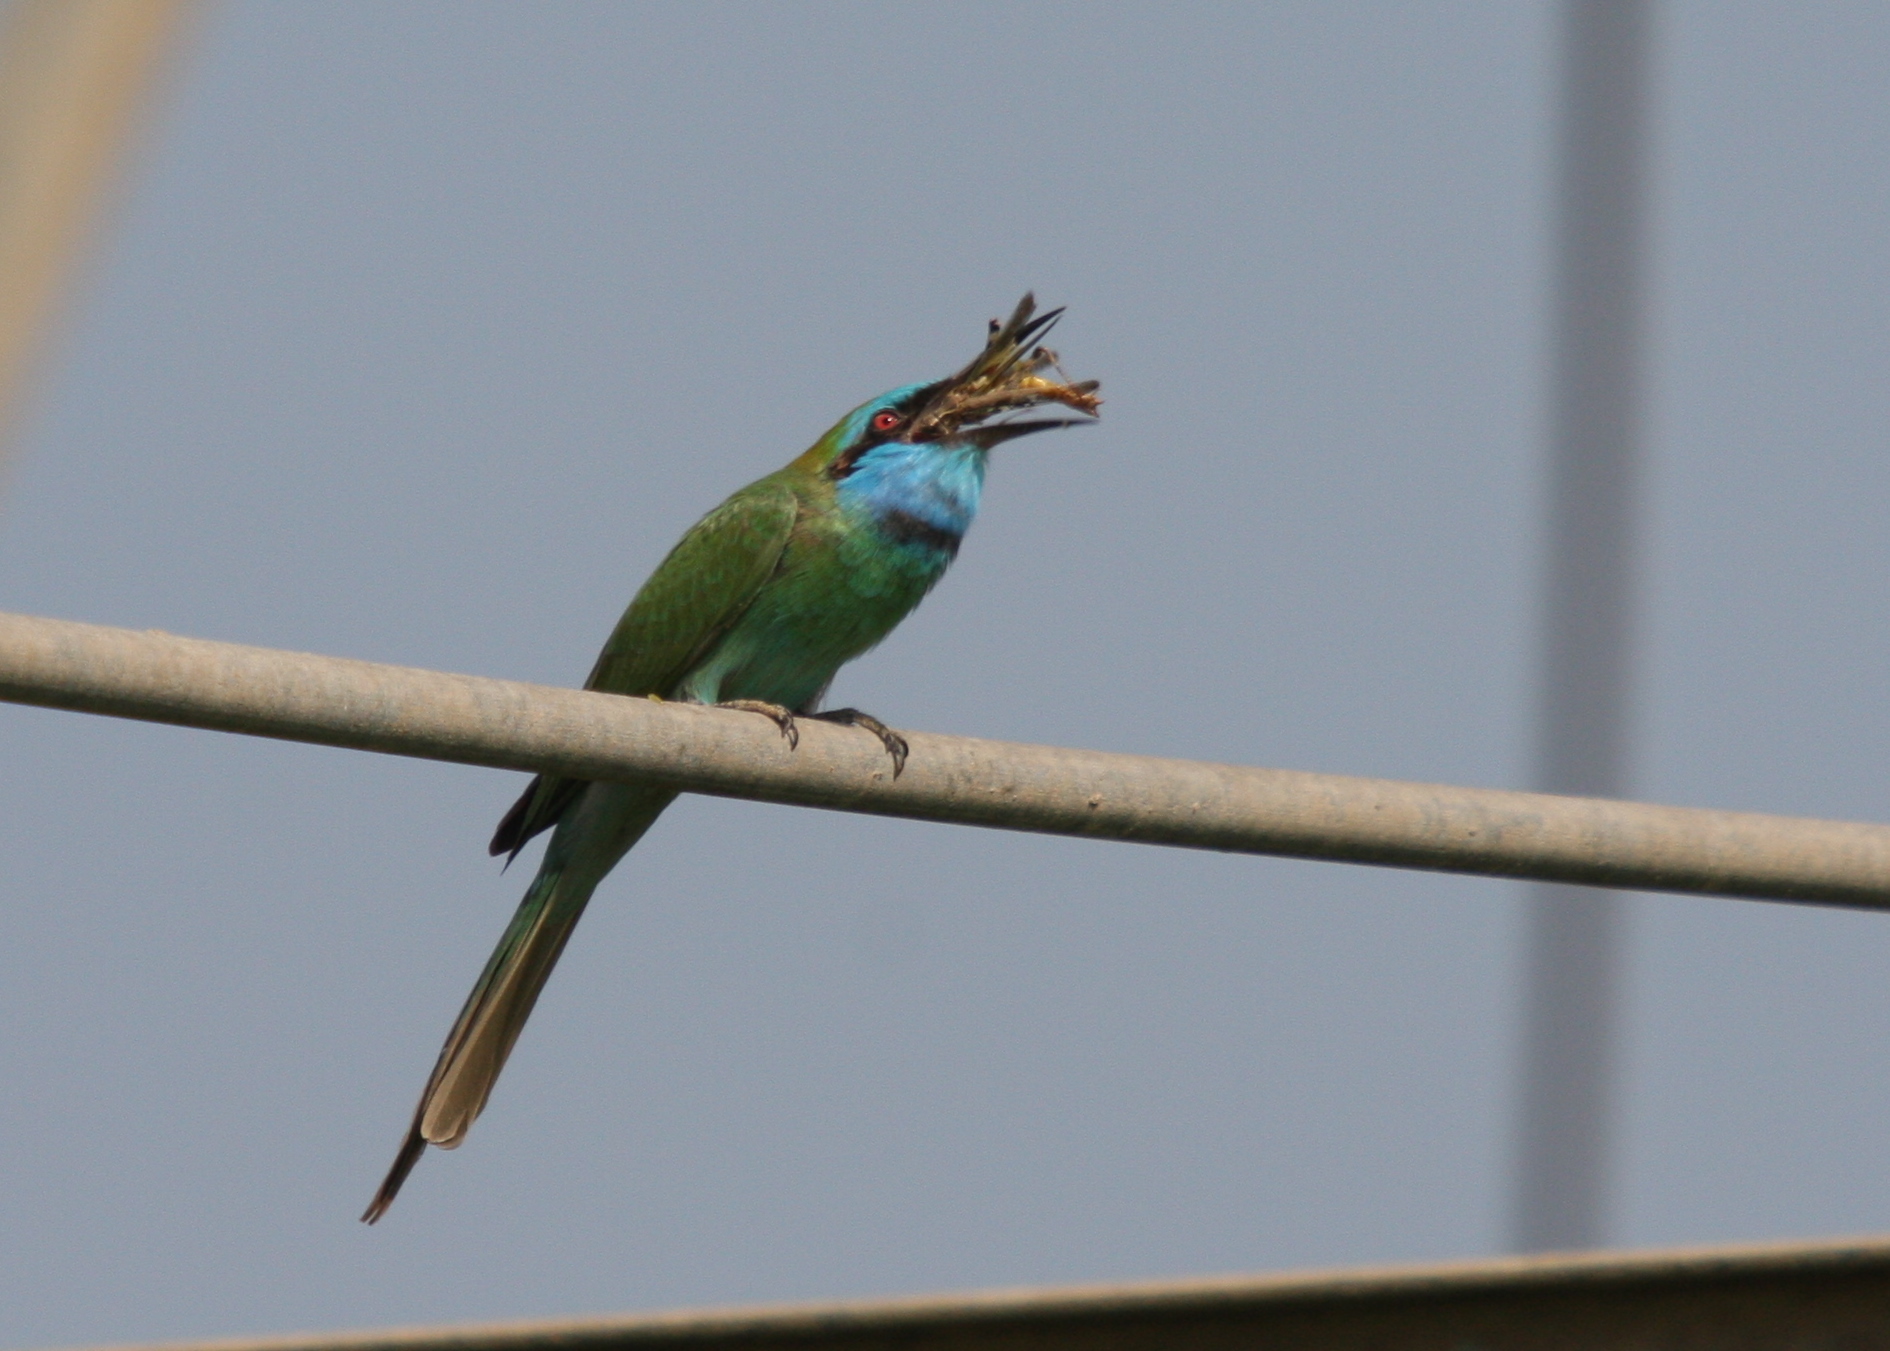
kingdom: Animalia
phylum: Chordata
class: Aves
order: Coraciiformes
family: Meropidae
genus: Merops
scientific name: Merops cyanophrys
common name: Arabian green bee-eater
